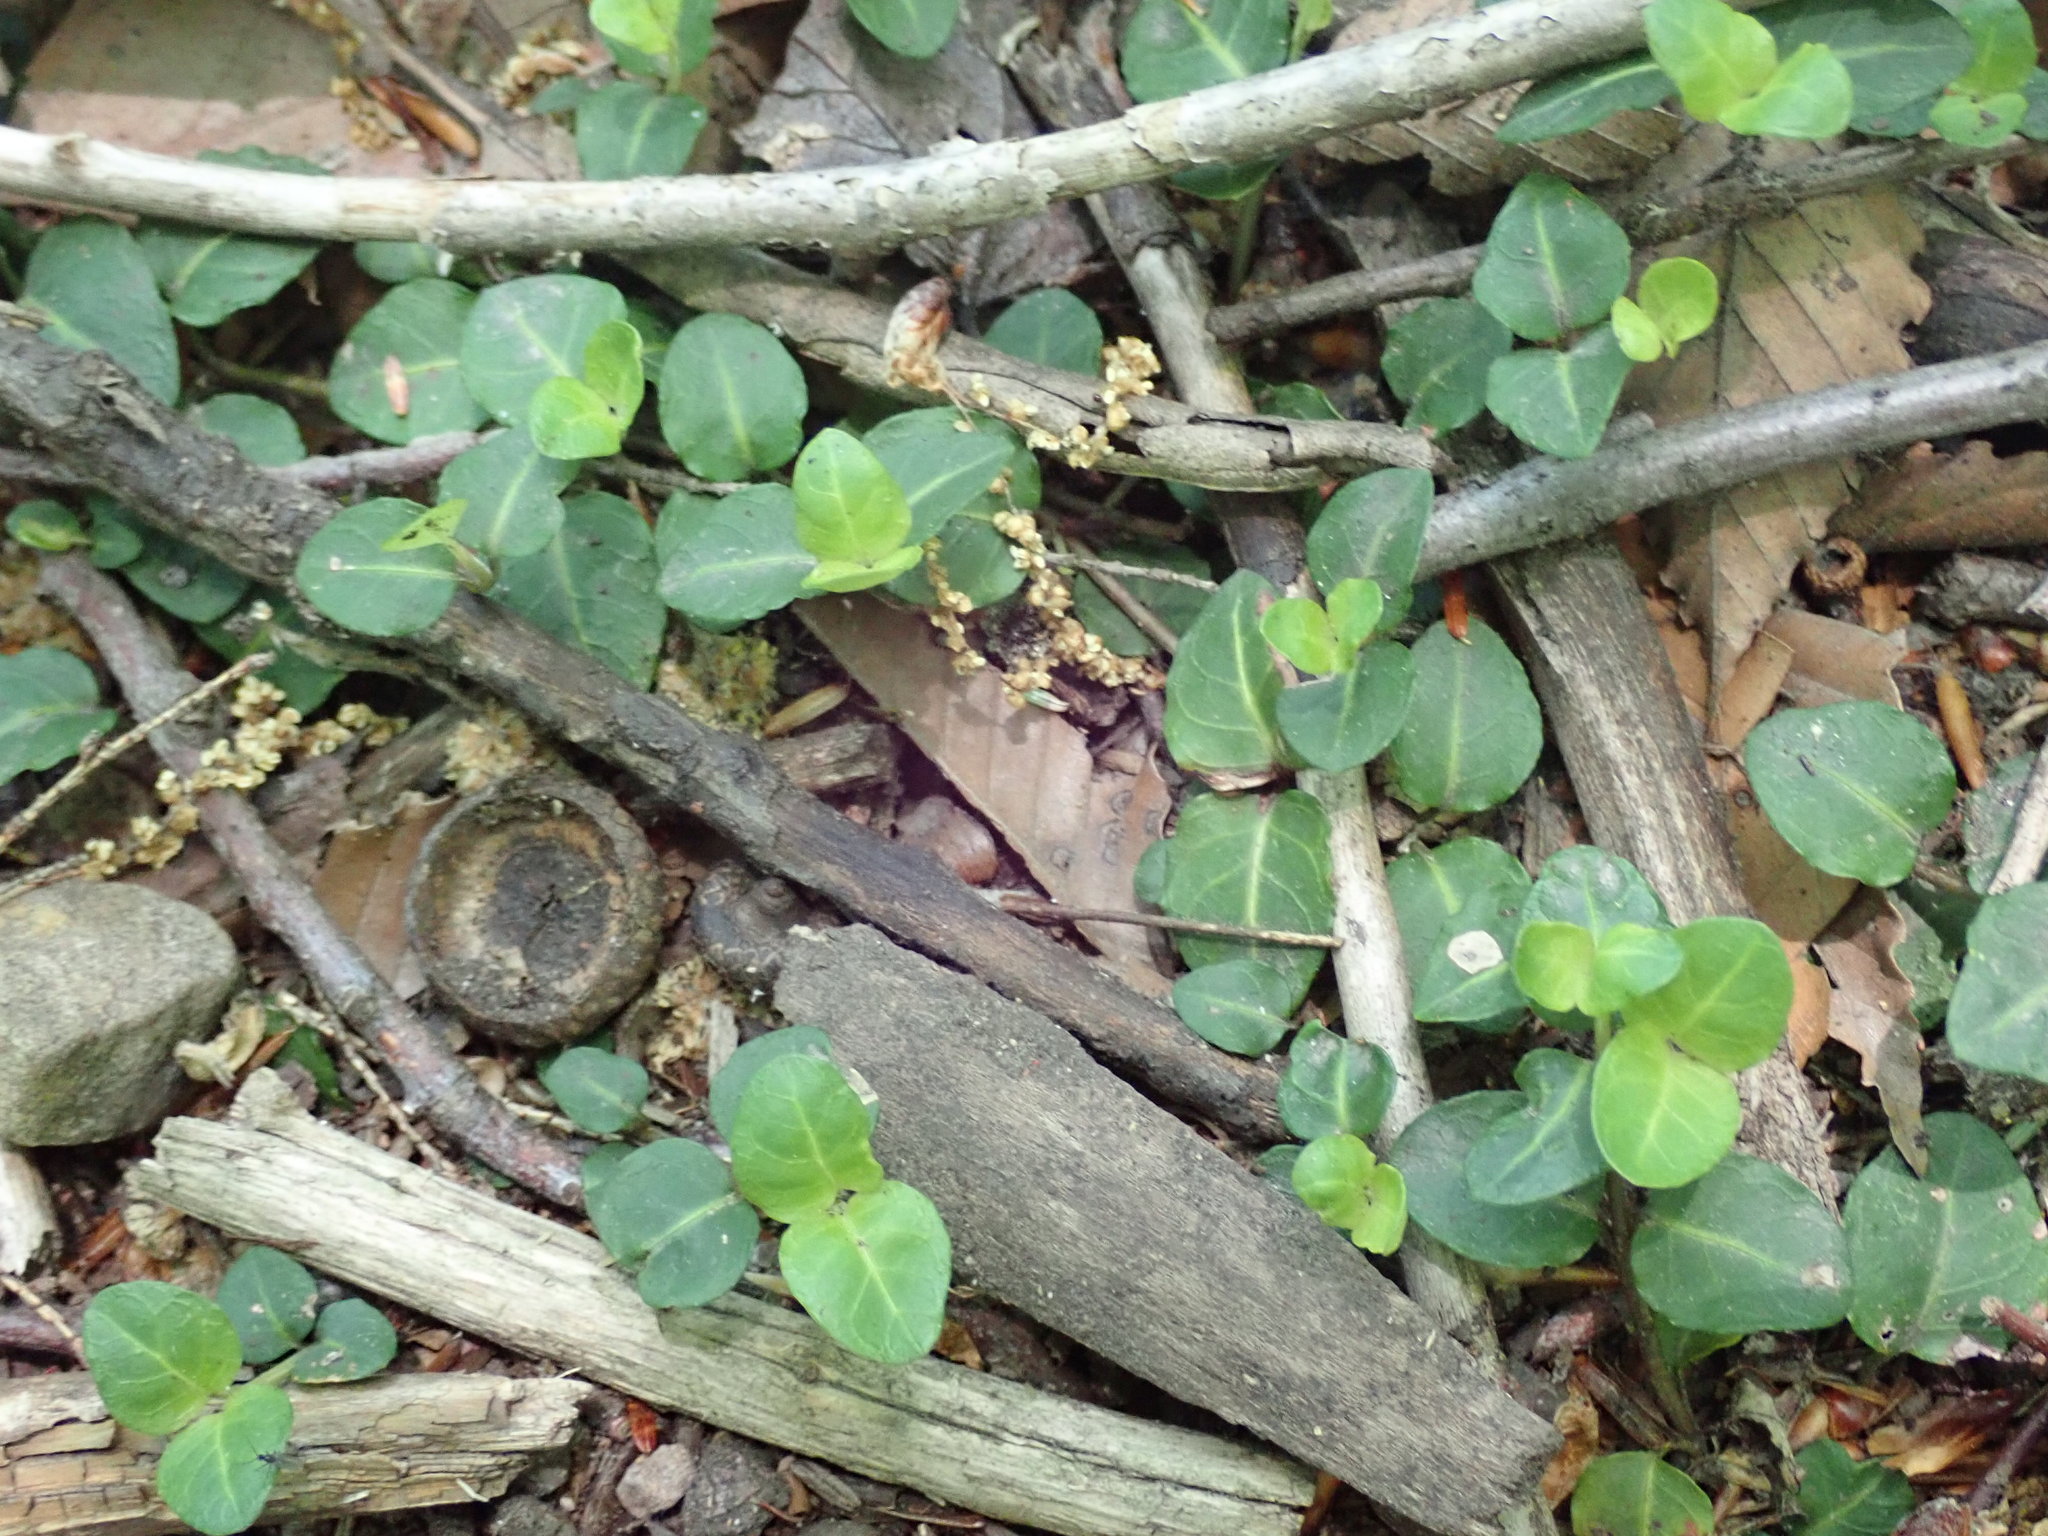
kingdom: Plantae
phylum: Tracheophyta
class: Magnoliopsida
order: Gentianales
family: Rubiaceae
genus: Mitchella
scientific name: Mitchella repens
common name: Partridge-berry
